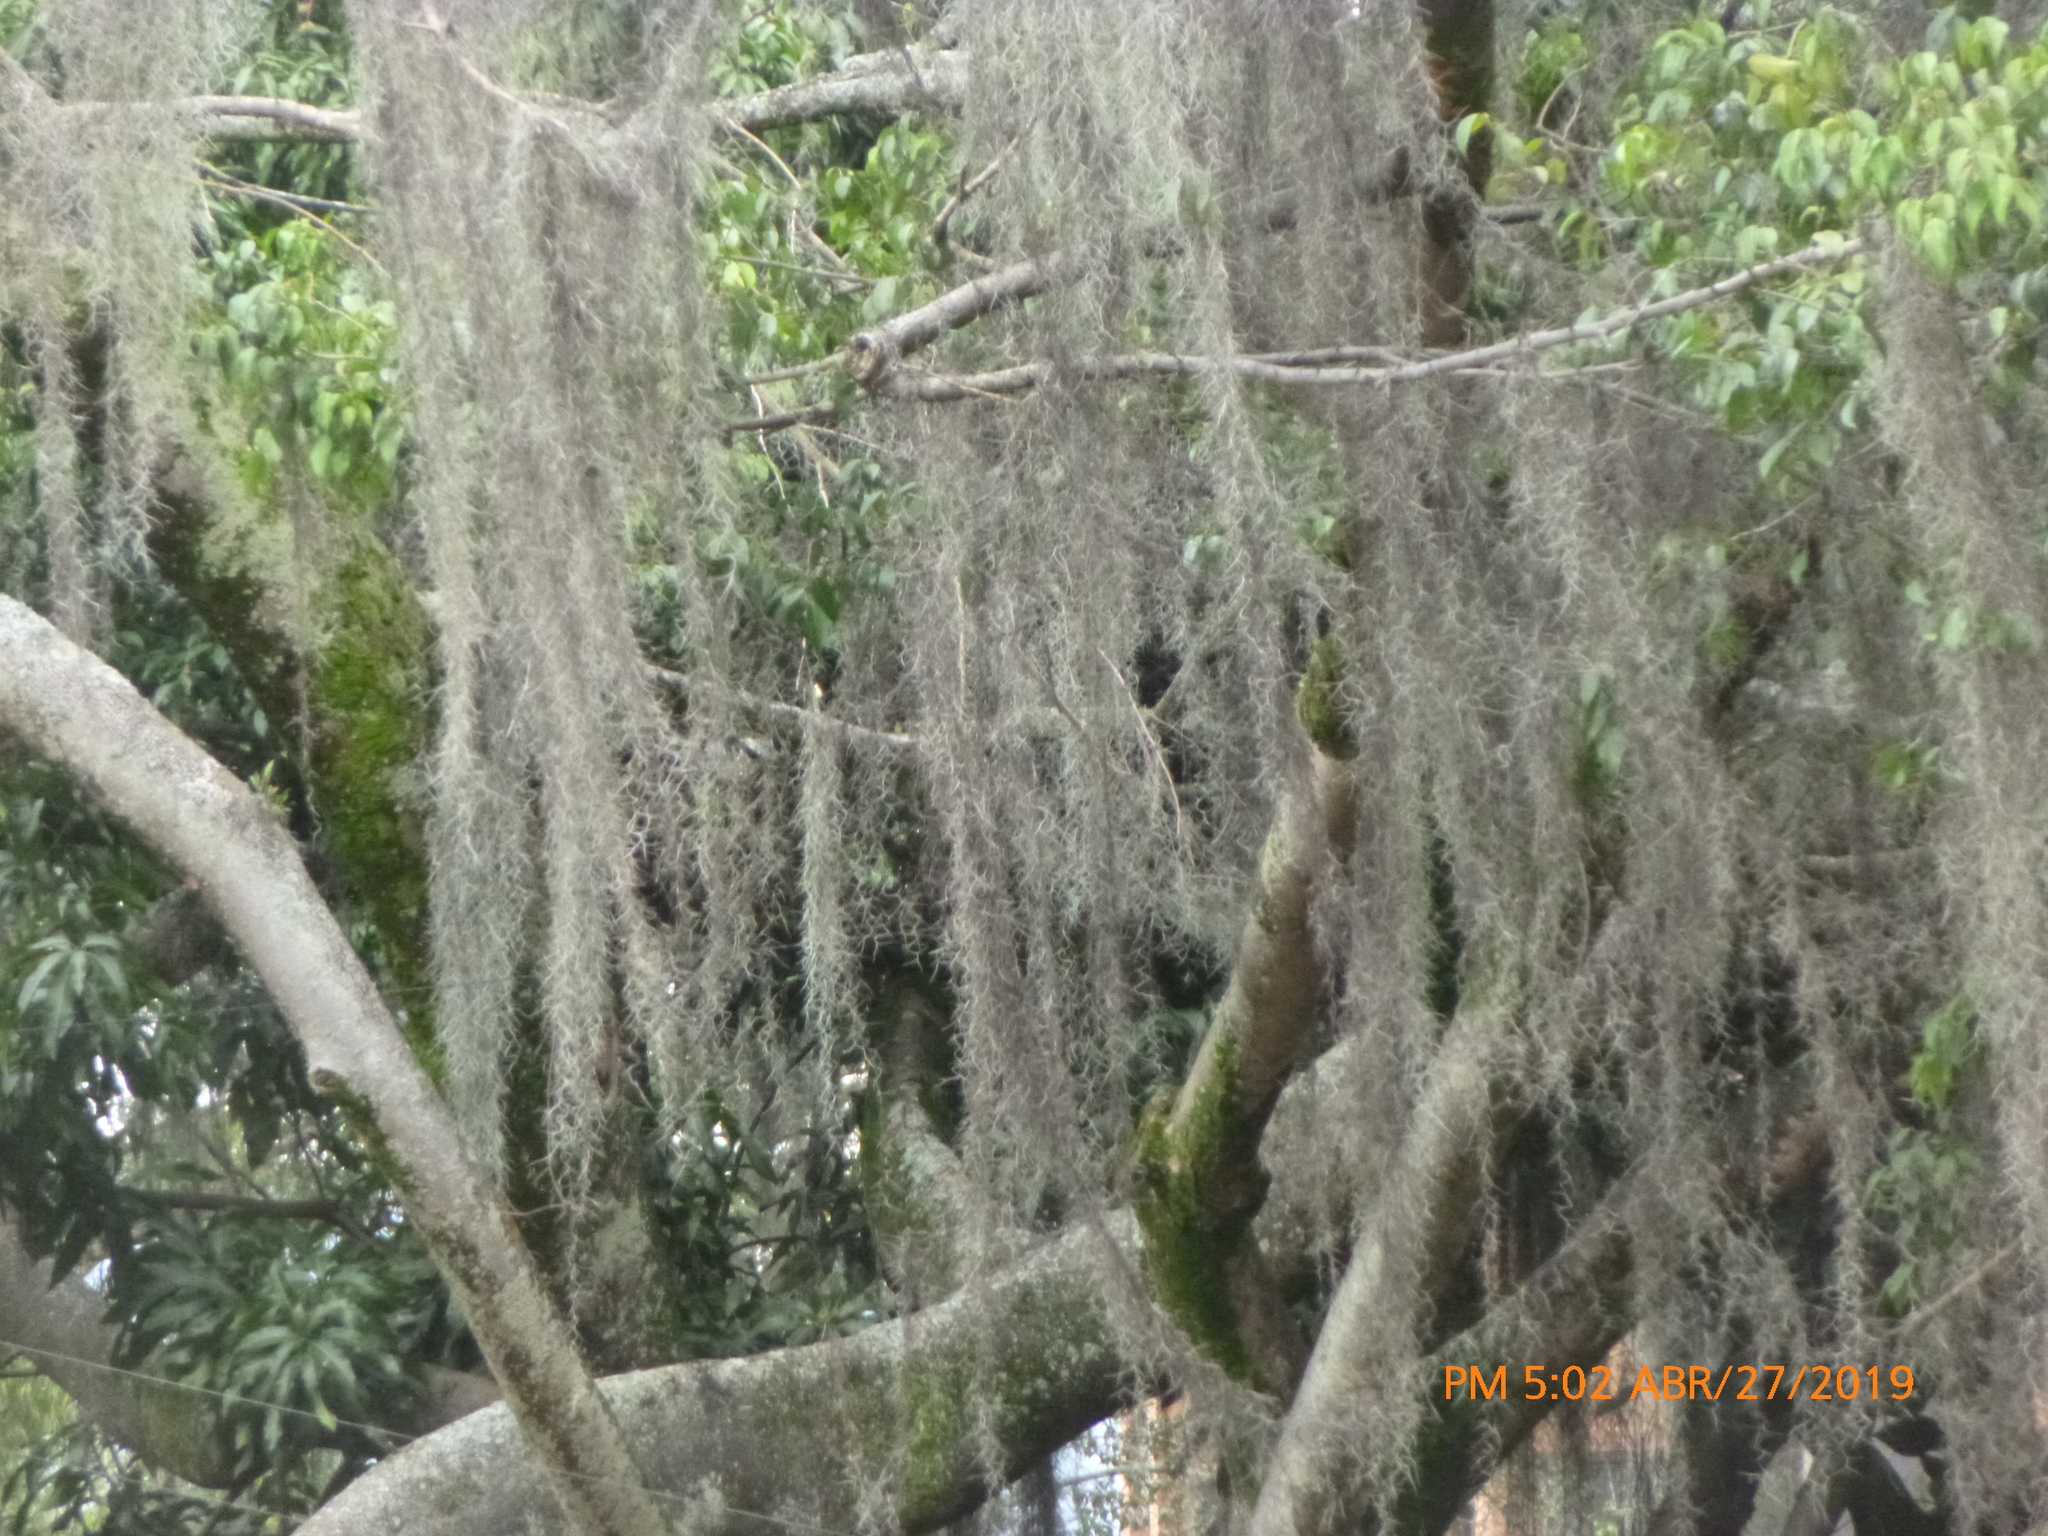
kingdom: Plantae
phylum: Tracheophyta
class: Liliopsida
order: Poales
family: Bromeliaceae
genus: Tillandsia
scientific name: Tillandsia usneoides
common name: Spanish moss
